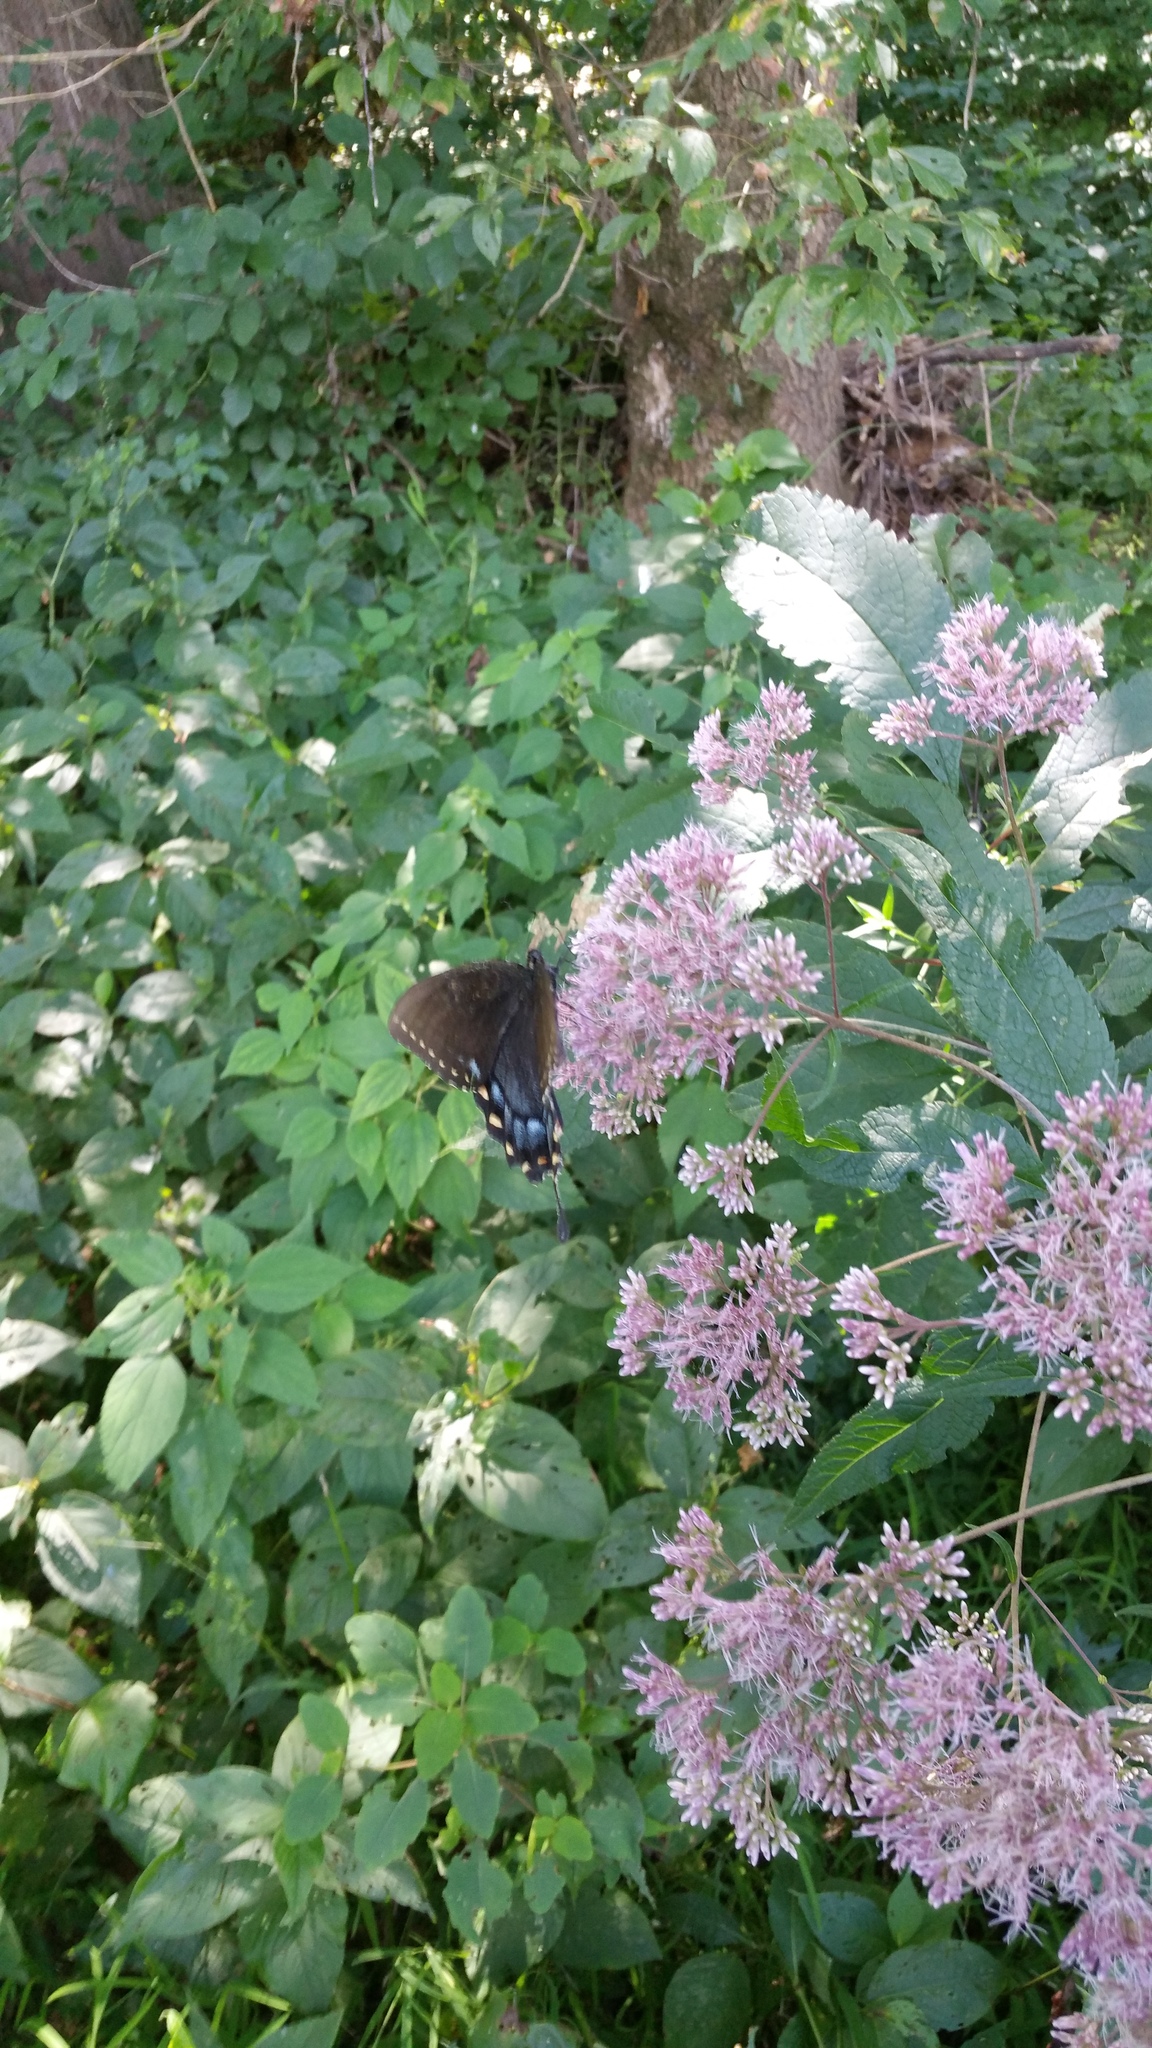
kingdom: Animalia
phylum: Arthropoda
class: Insecta
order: Lepidoptera
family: Papilionidae
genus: Papilio
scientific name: Papilio glaucus
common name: Tiger swallowtail
